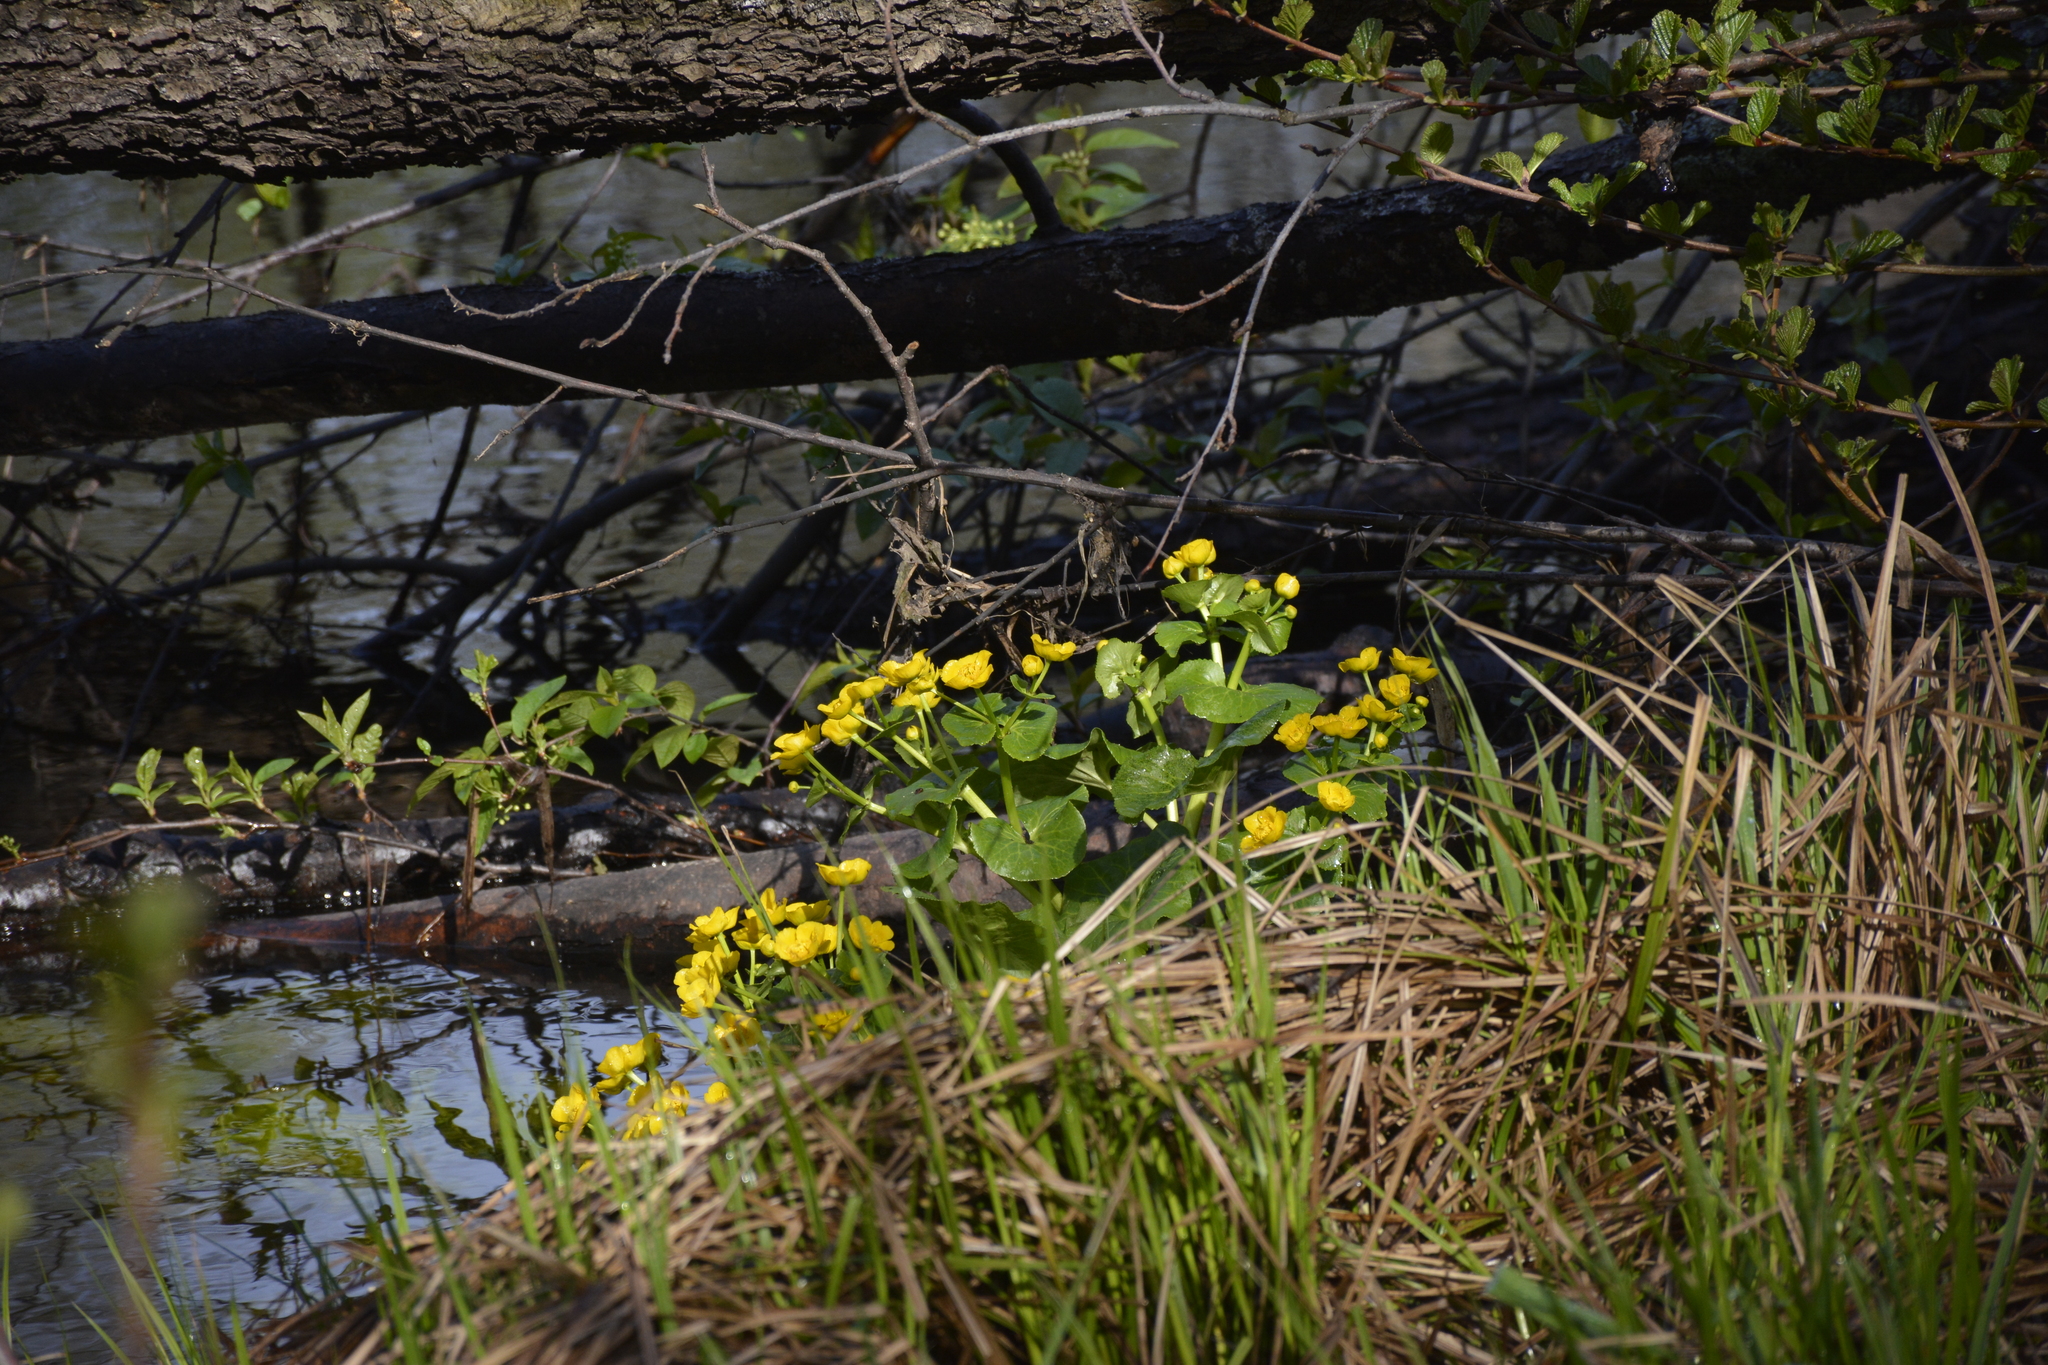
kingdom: Plantae
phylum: Tracheophyta
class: Magnoliopsida
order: Ranunculales
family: Ranunculaceae
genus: Caltha
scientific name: Caltha palustris
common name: Marsh marigold
